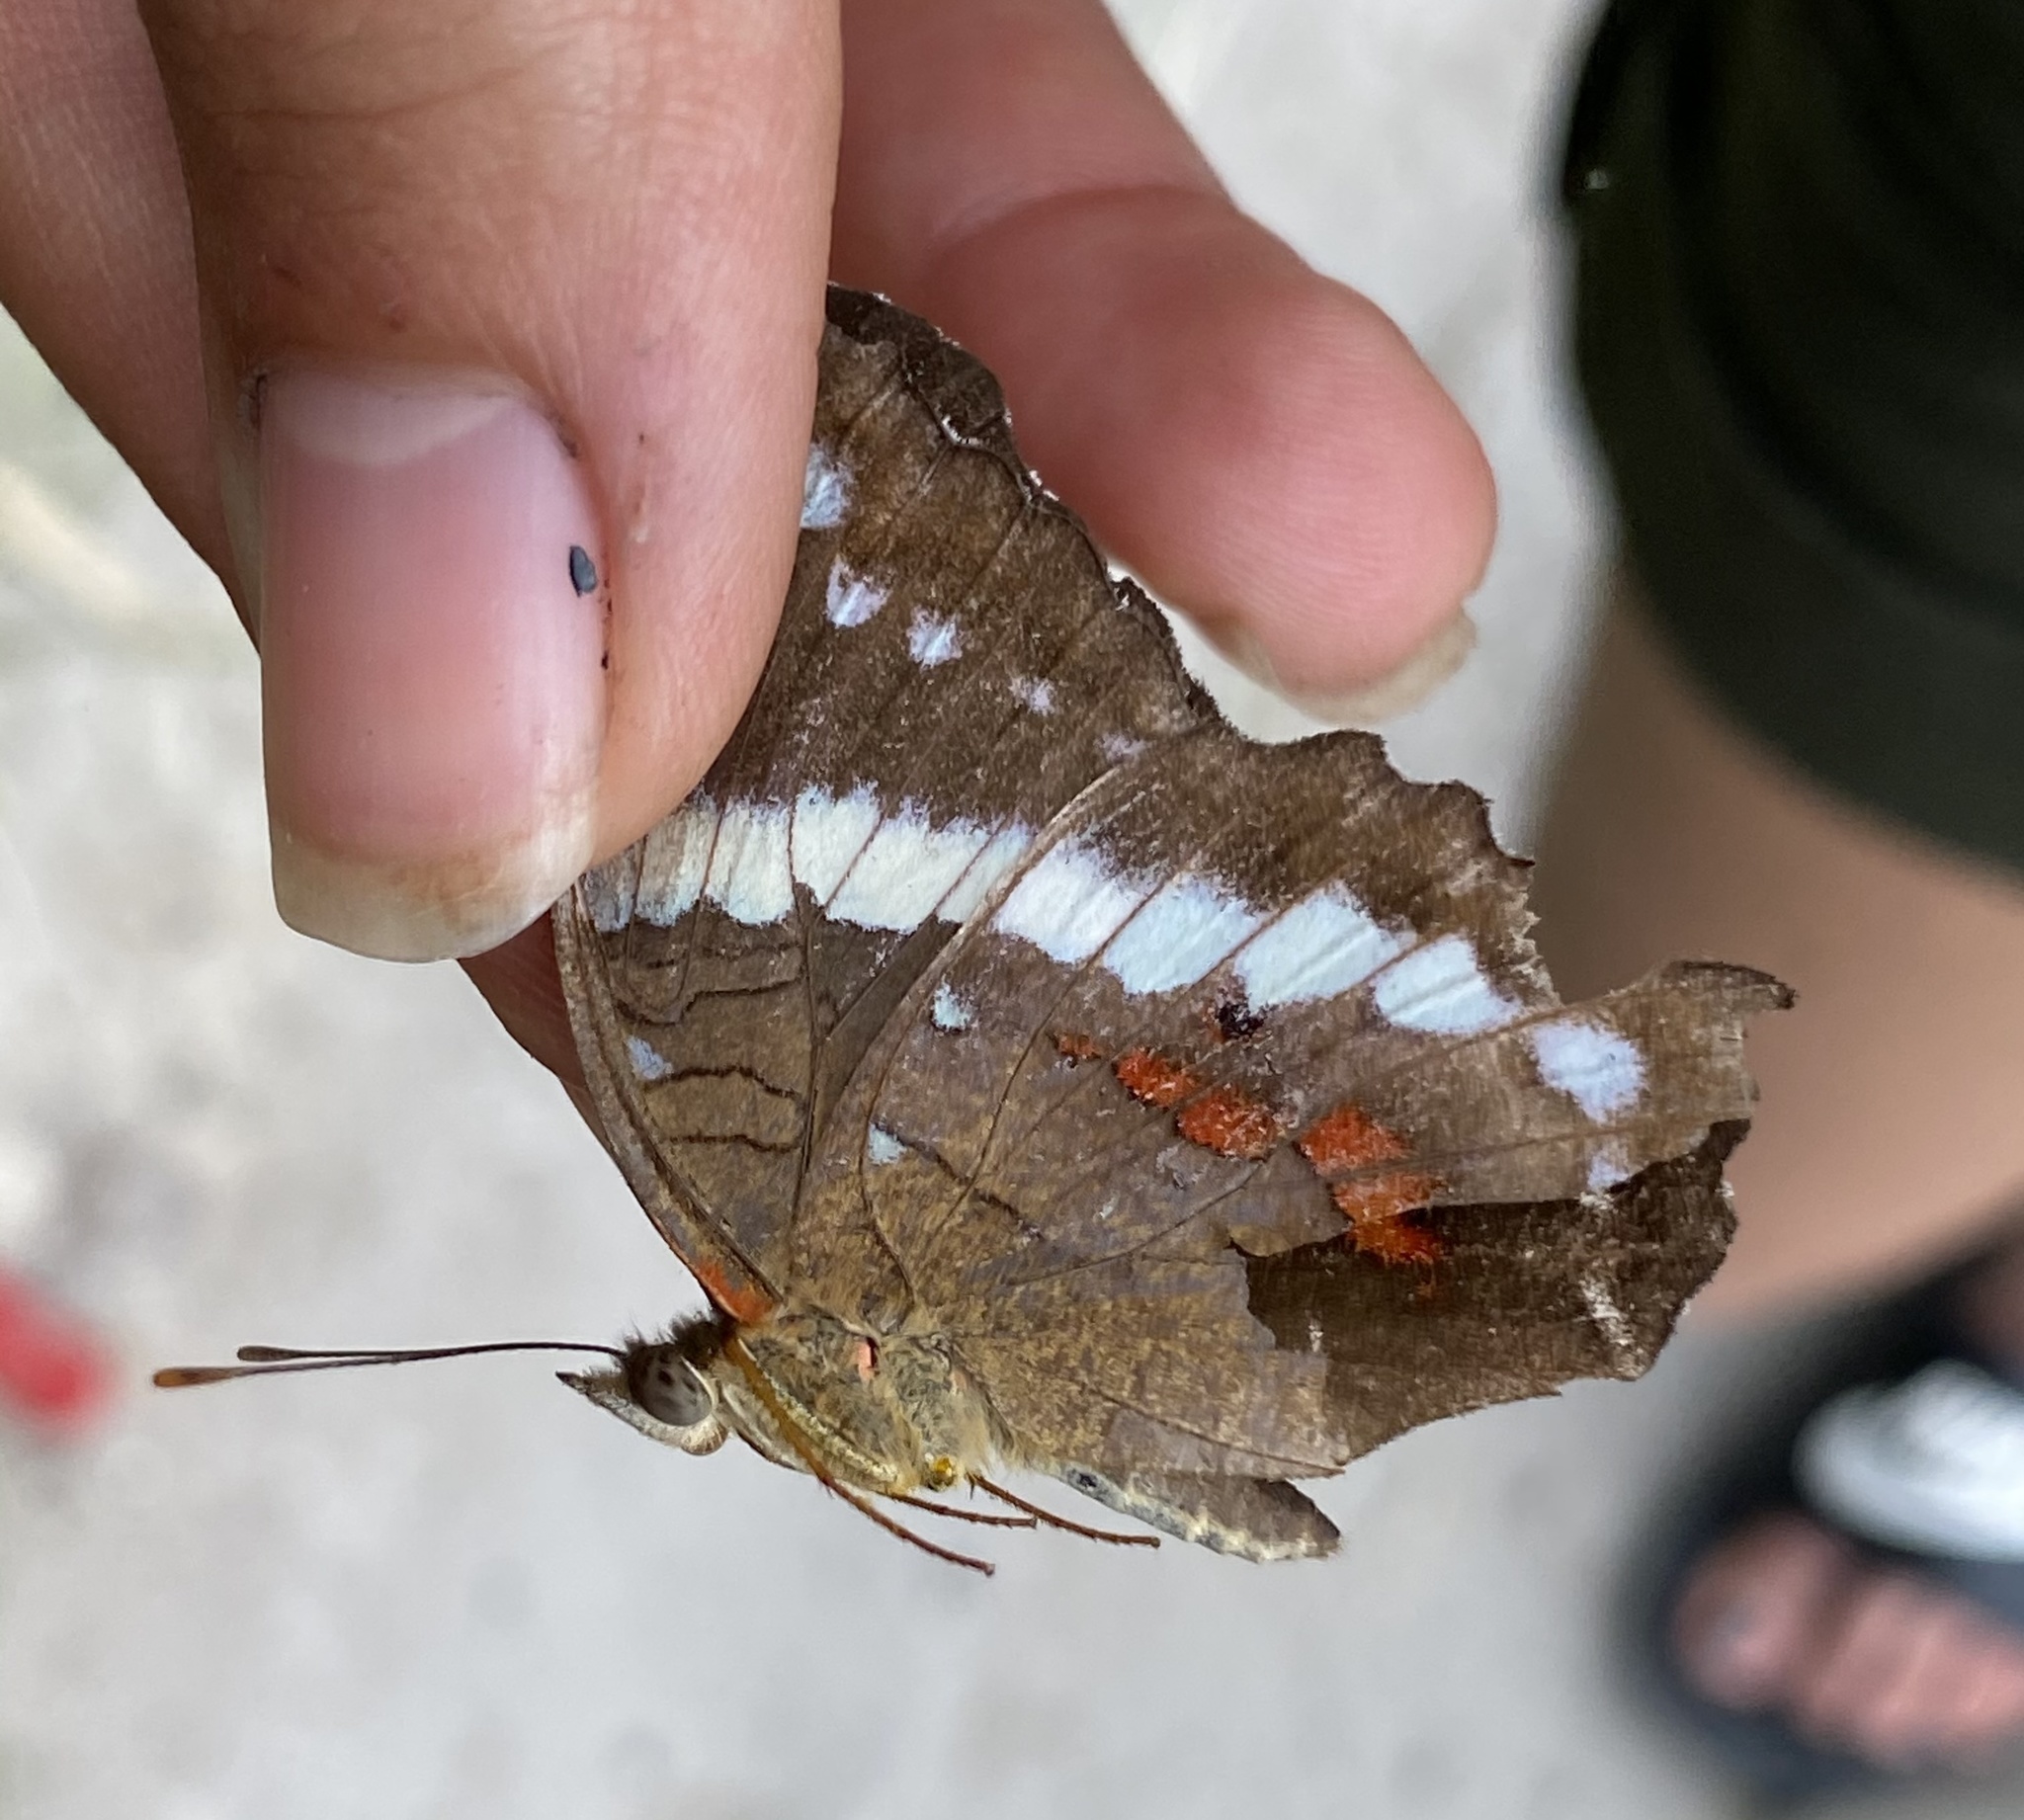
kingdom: Animalia
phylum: Arthropoda
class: Insecta
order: Lepidoptera
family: Nymphalidae
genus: Anartia
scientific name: Anartia fatima
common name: Banded peacock
